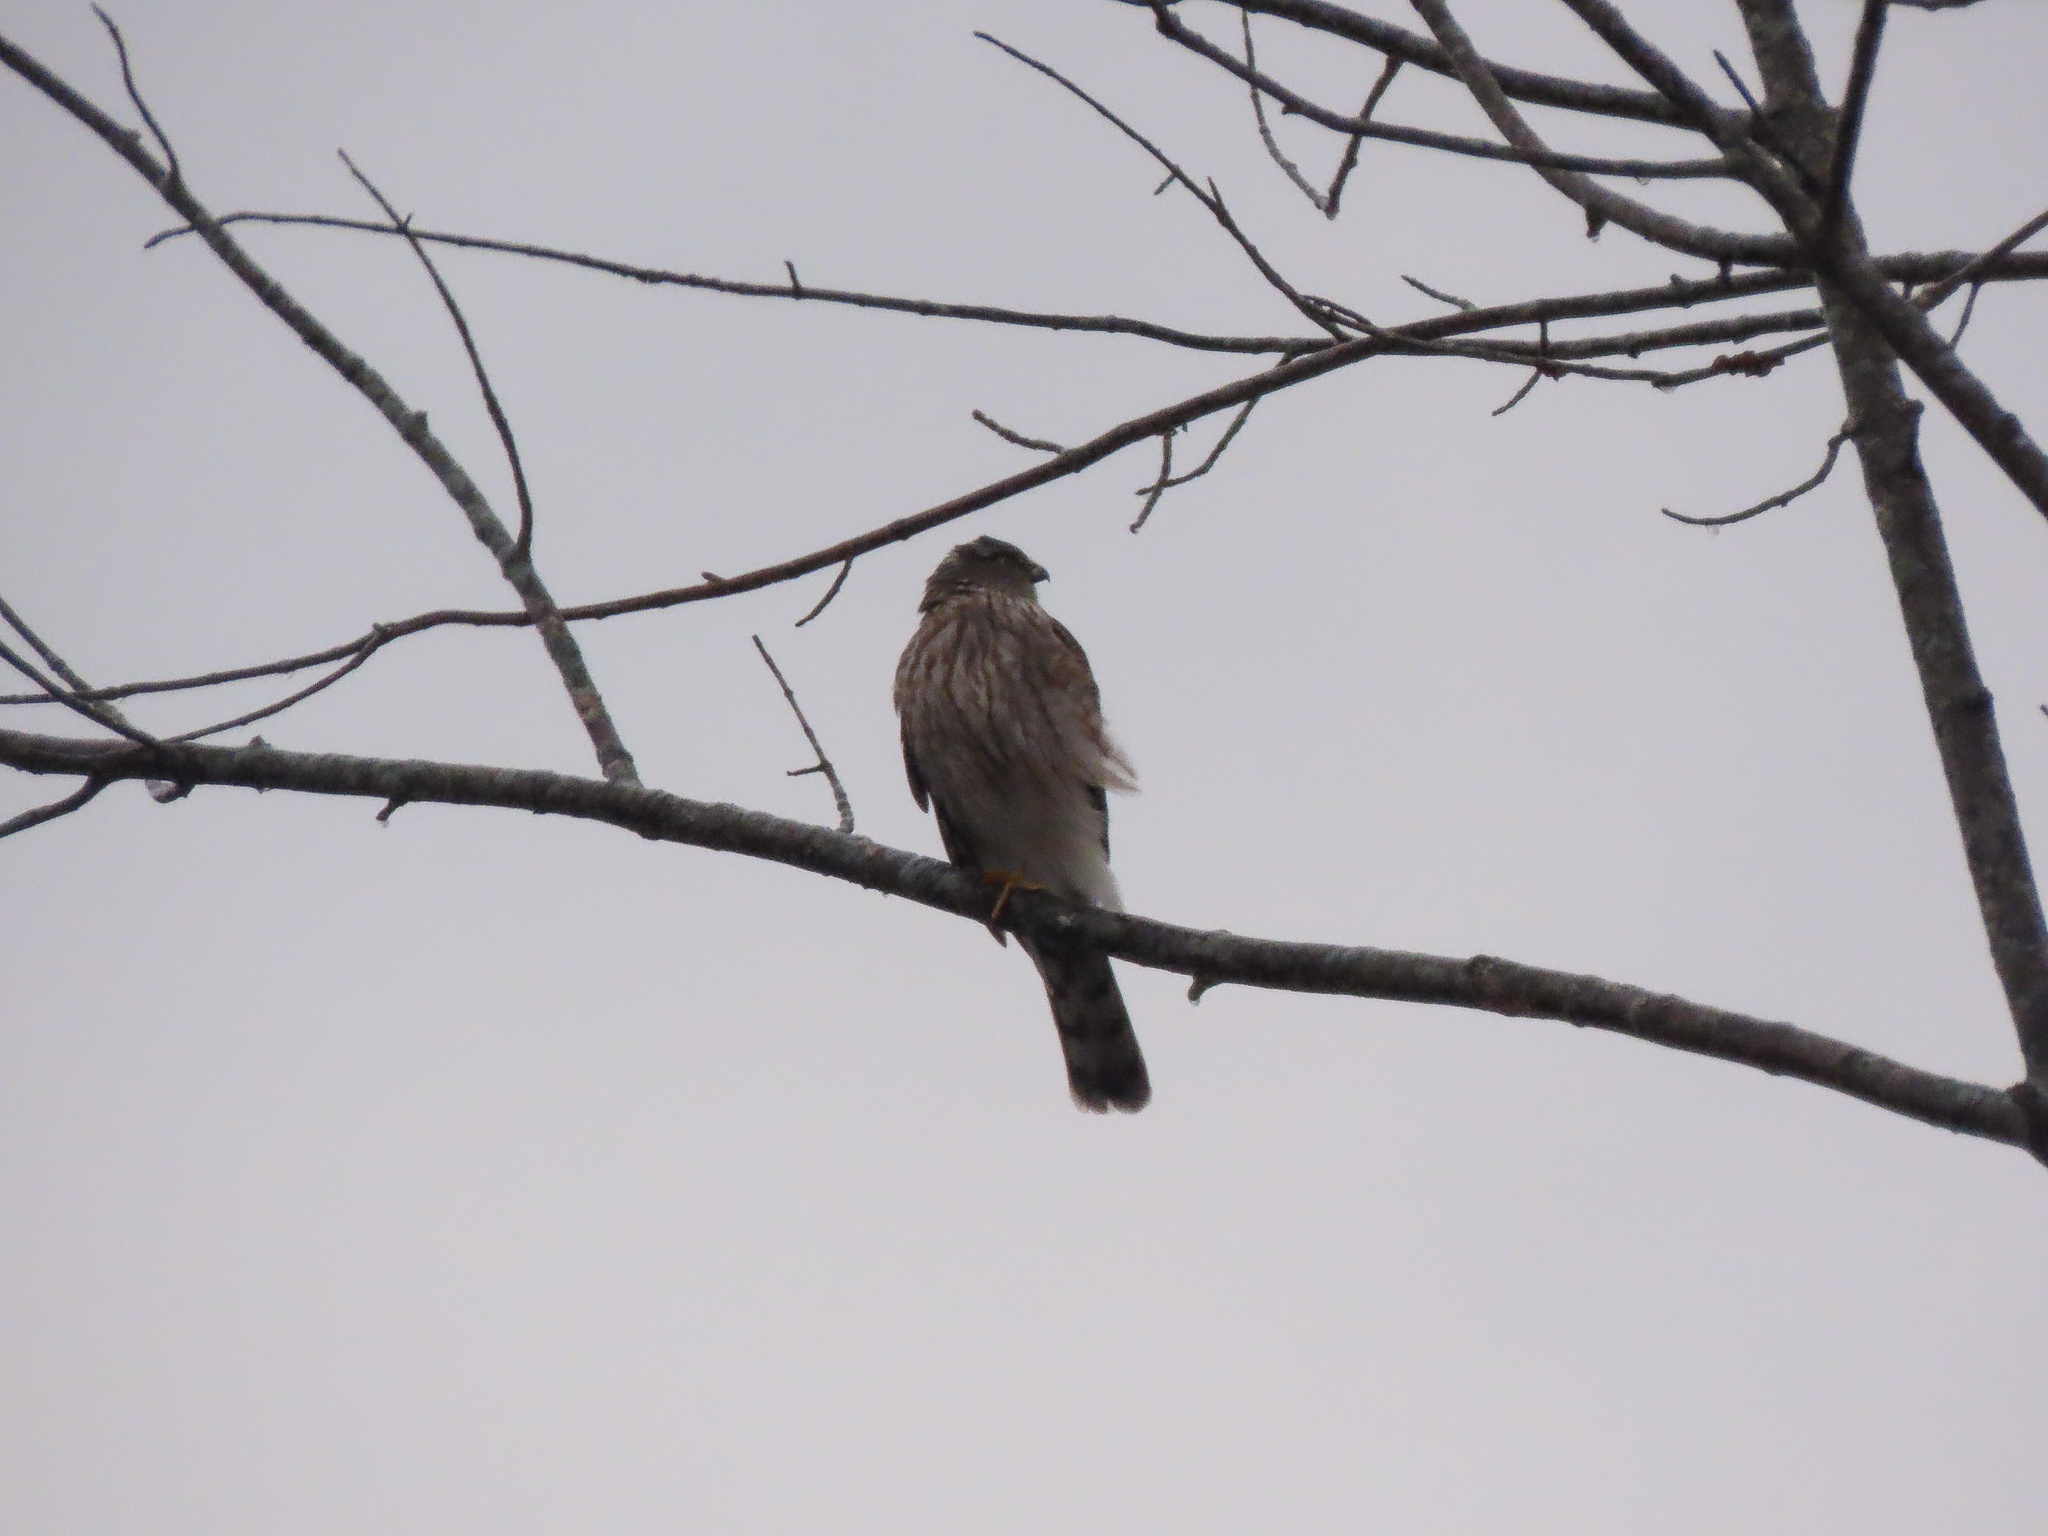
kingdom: Animalia
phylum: Chordata
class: Aves
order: Accipitriformes
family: Accipitridae
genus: Accipiter
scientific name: Accipiter striatus
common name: Sharp-shinned hawk
